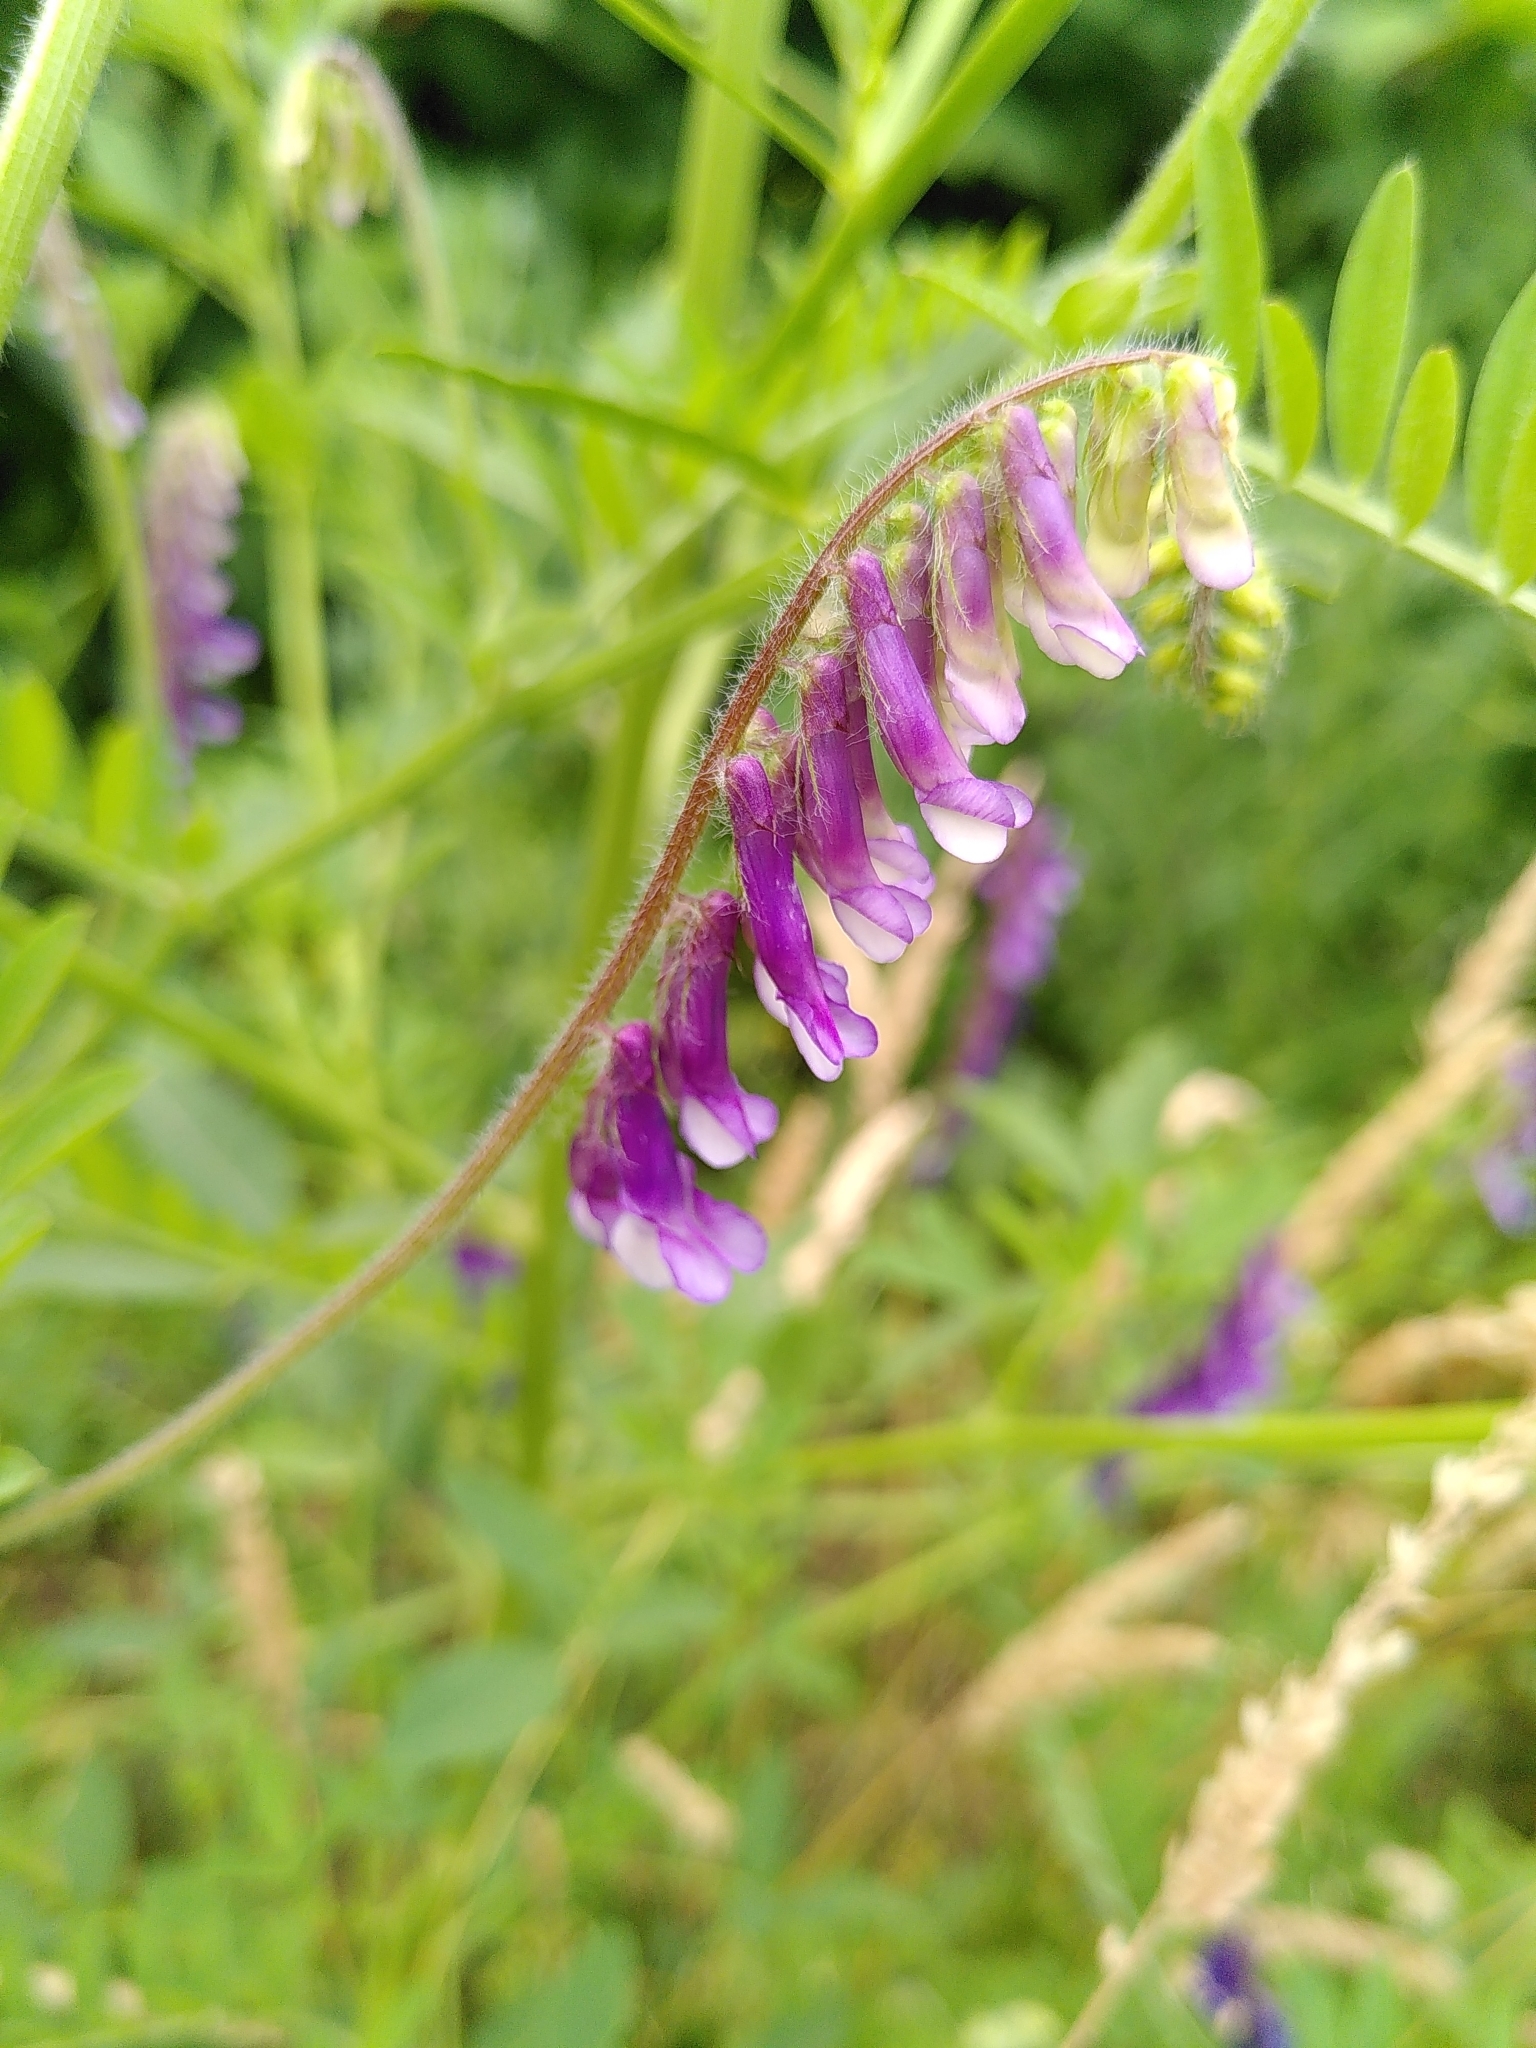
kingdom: Plantae
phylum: Tracheophyta
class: Magnoliopsida
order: Fabales
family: Fabaceae
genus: Vicia
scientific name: Vicia villosa
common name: Fodder vetch
